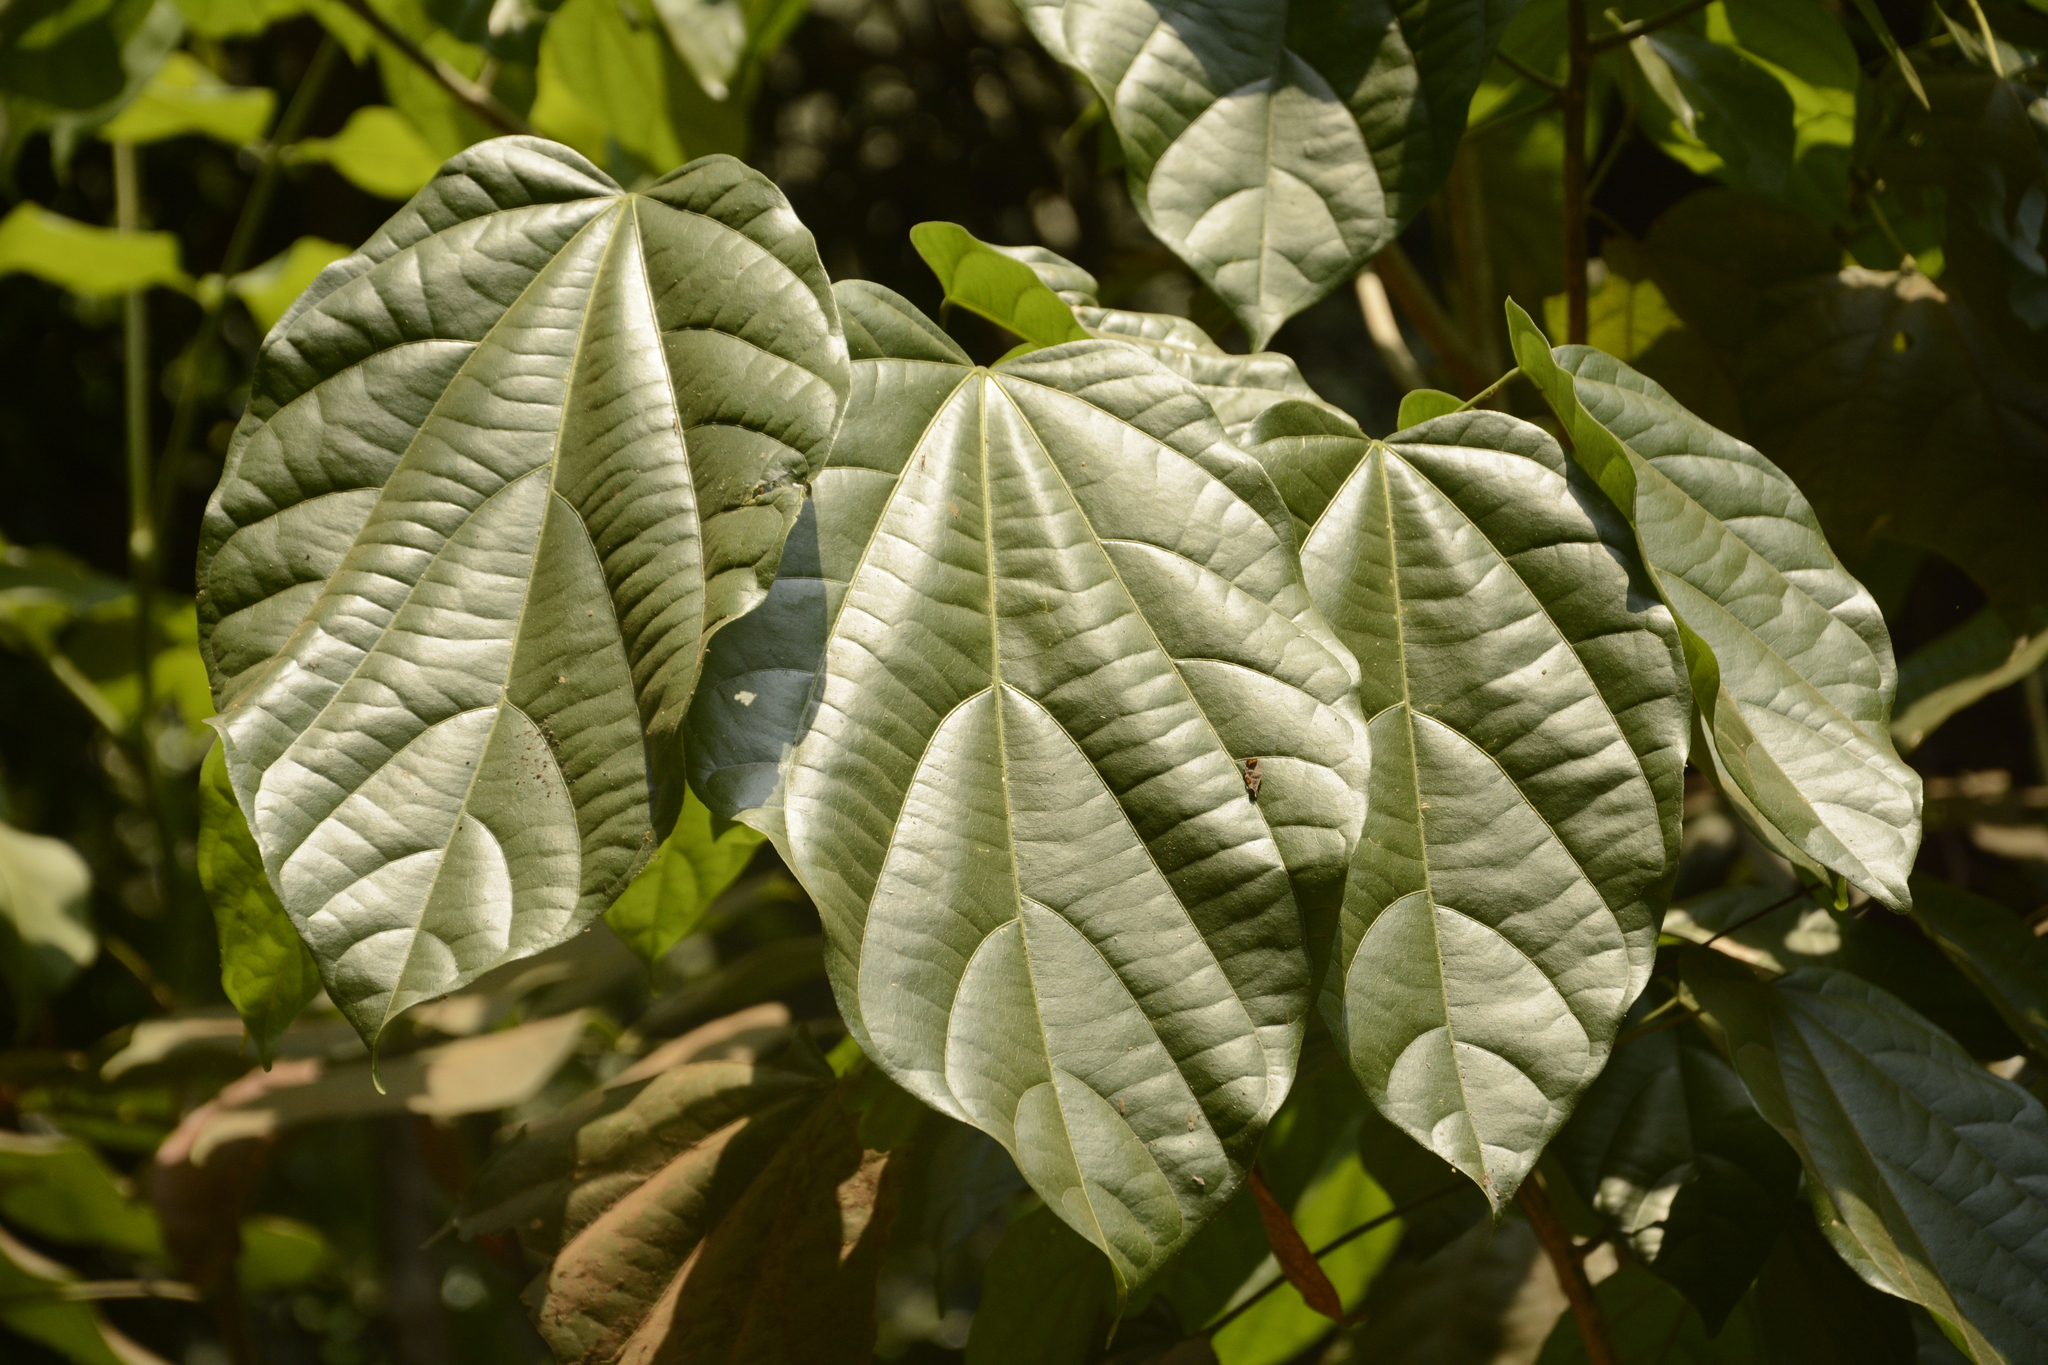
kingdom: Plantae
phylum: Tracheophyta
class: Magnoliopsida
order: Malvales
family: Malvaceae
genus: Pterygota
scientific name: Pterygota alata
